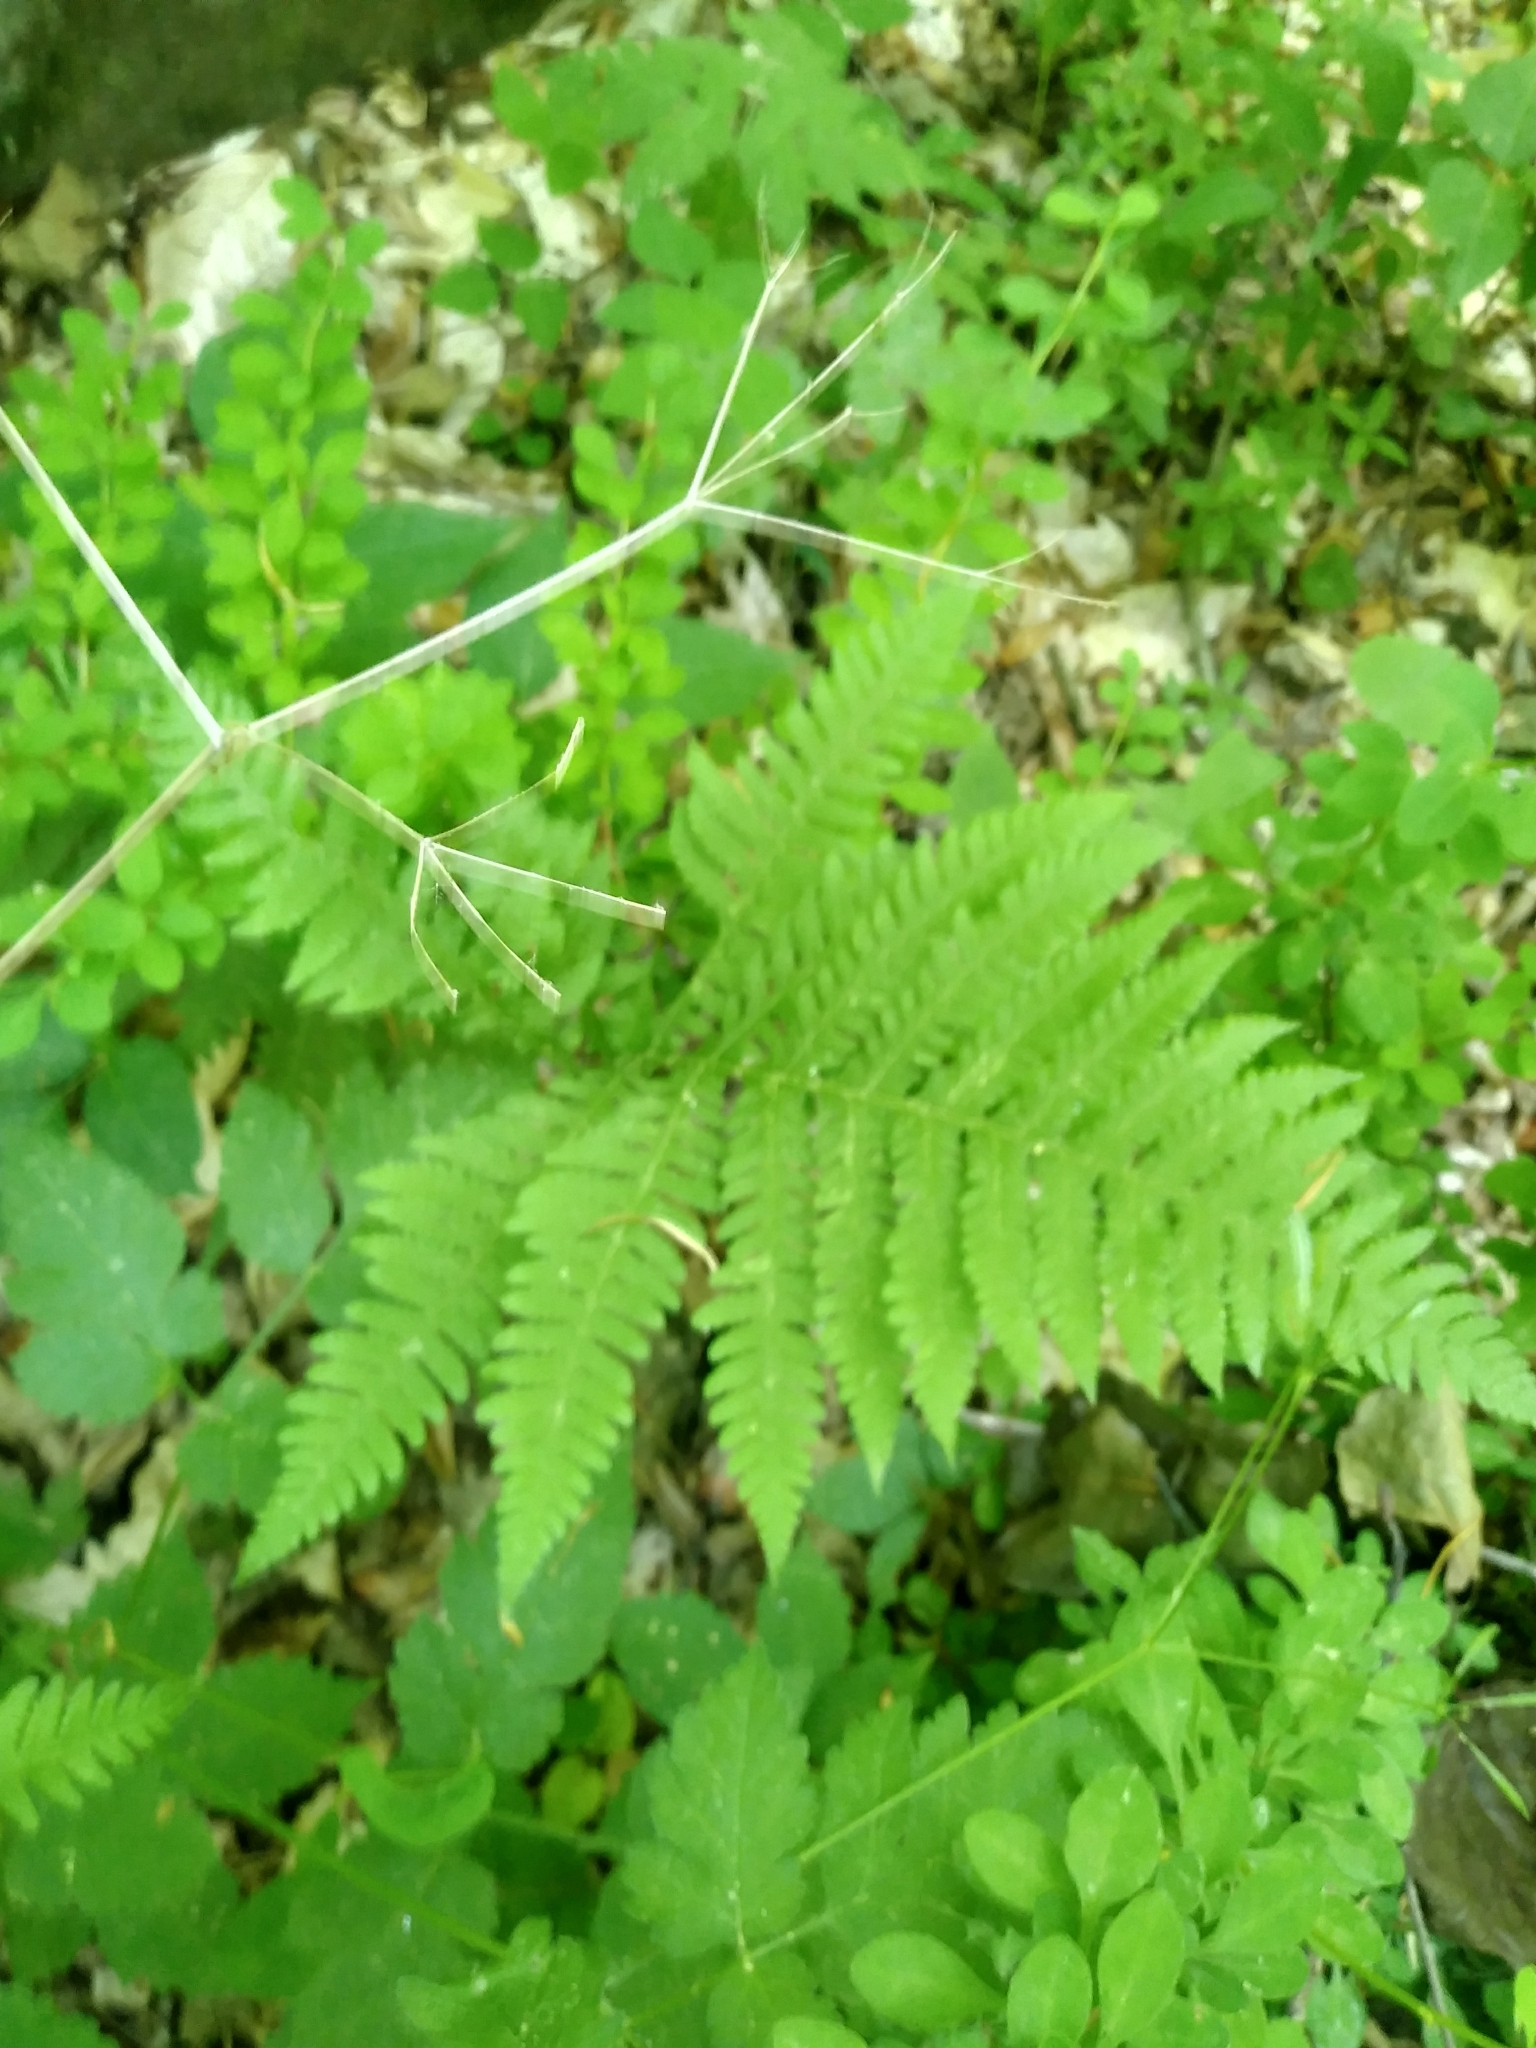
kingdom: Plantae
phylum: Tracheophyta
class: Polypodiopsida
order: Polypodiales
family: Thelypteridaceae
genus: Phegopteris
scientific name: Phegopteris hexagonoptera
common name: Broad beech fern
